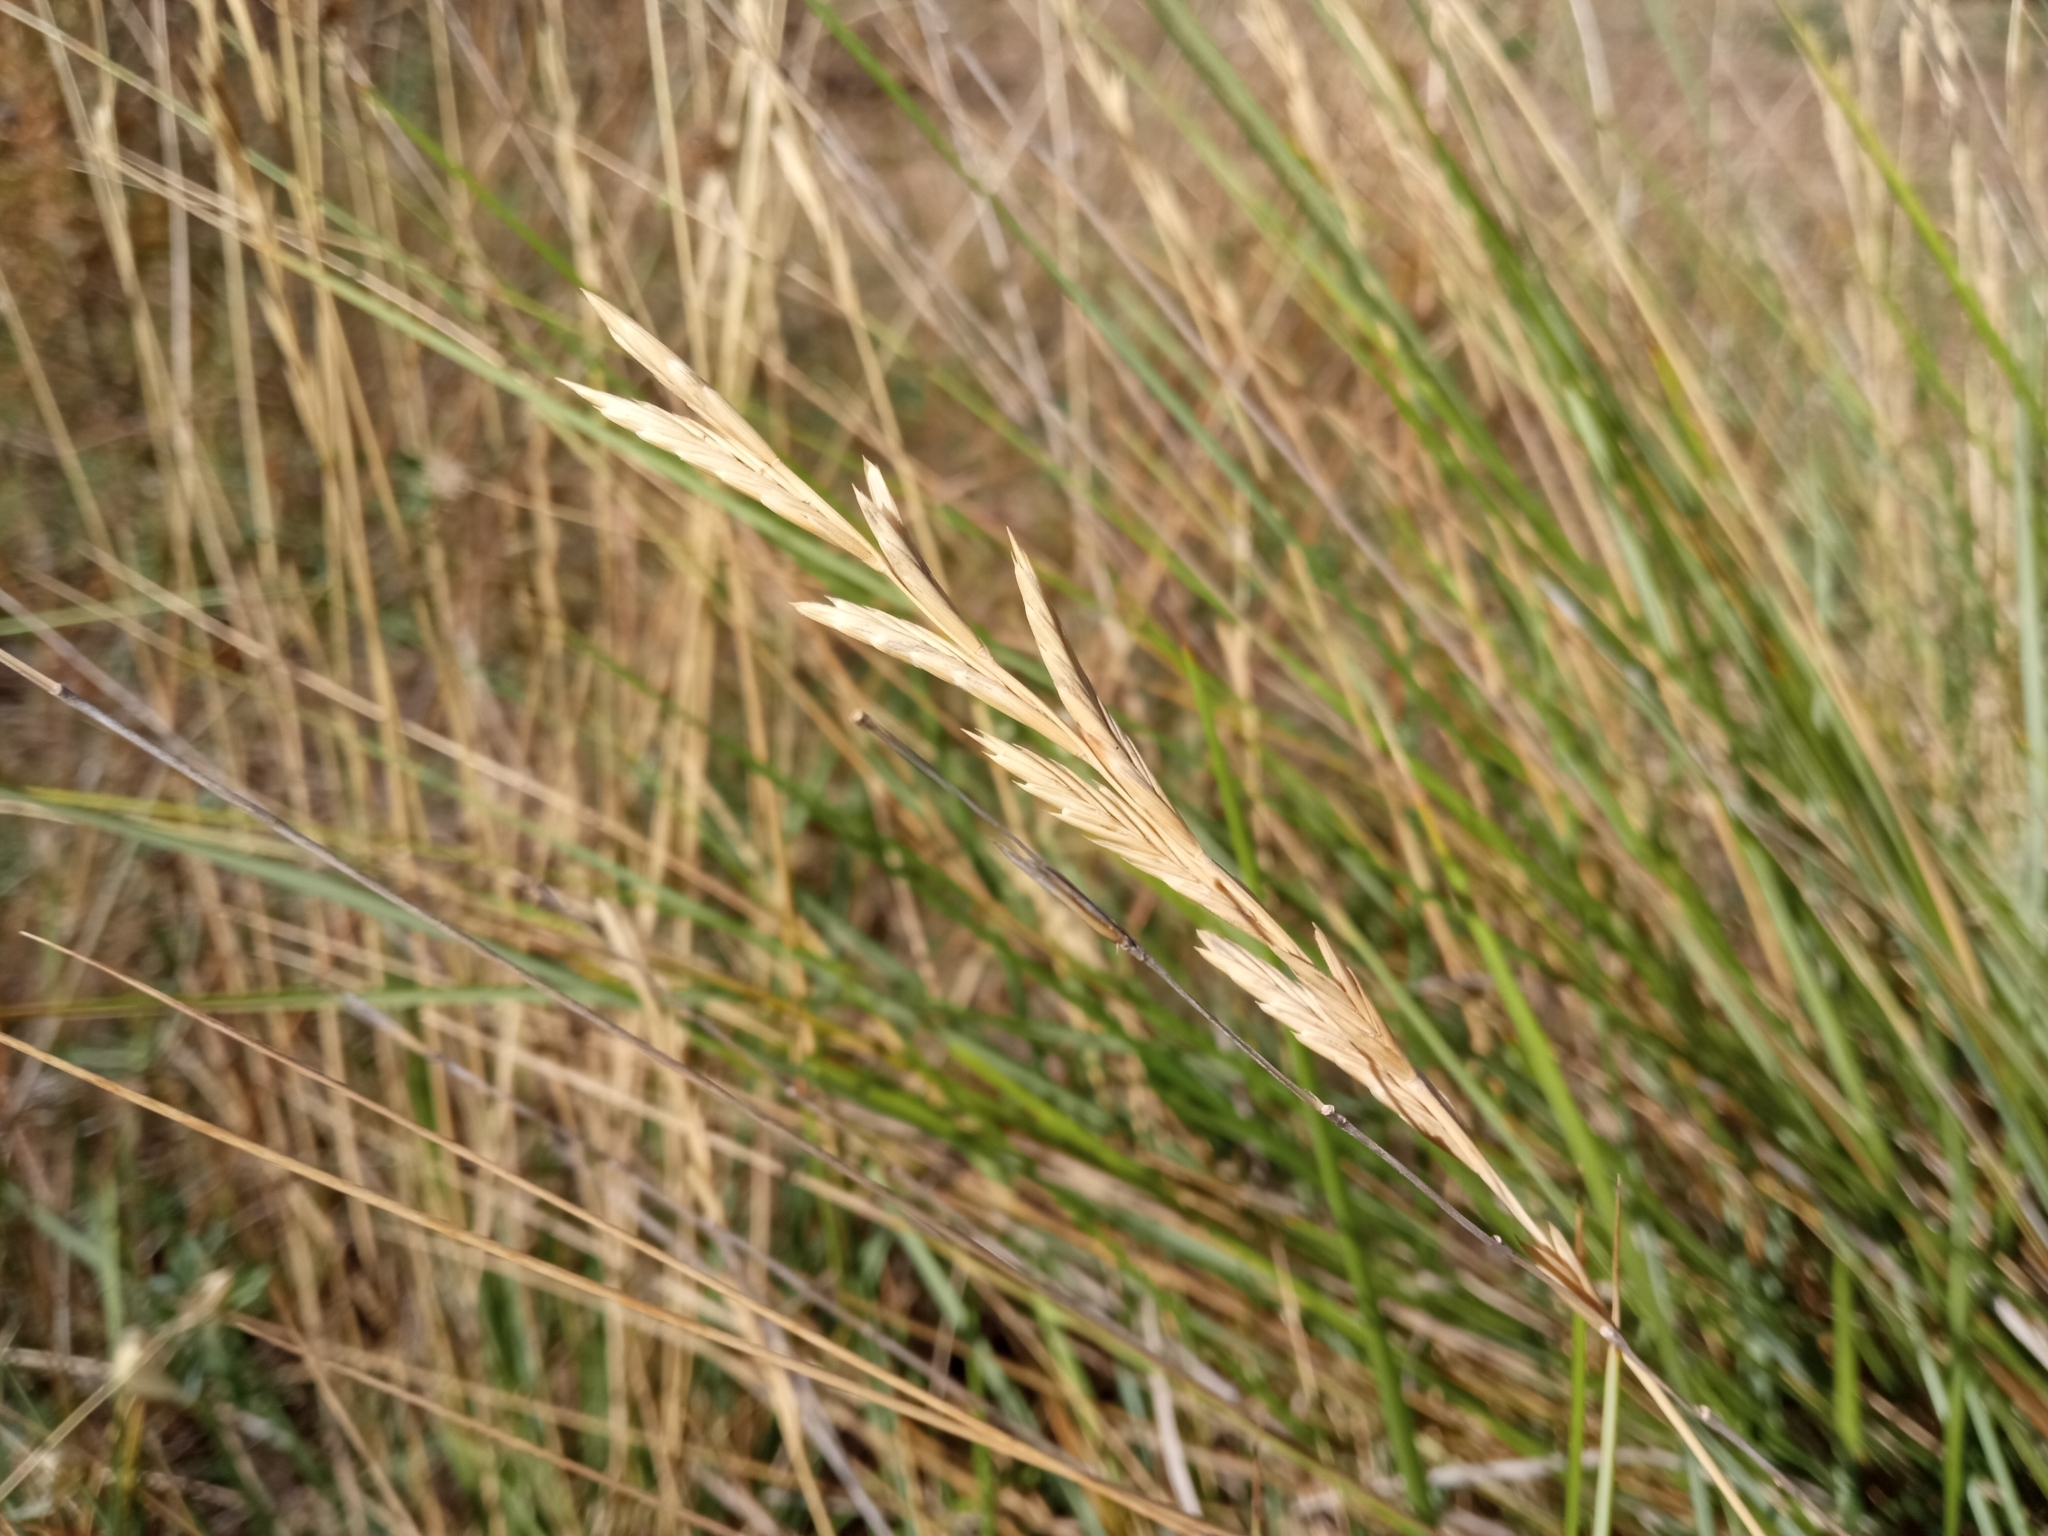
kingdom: Plantae
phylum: Tracheophyta
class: Liliopsida
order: Poales
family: Poaceae
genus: Brachypodium
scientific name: Brachypodium phoenicoides
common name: Thinleaf false brome
